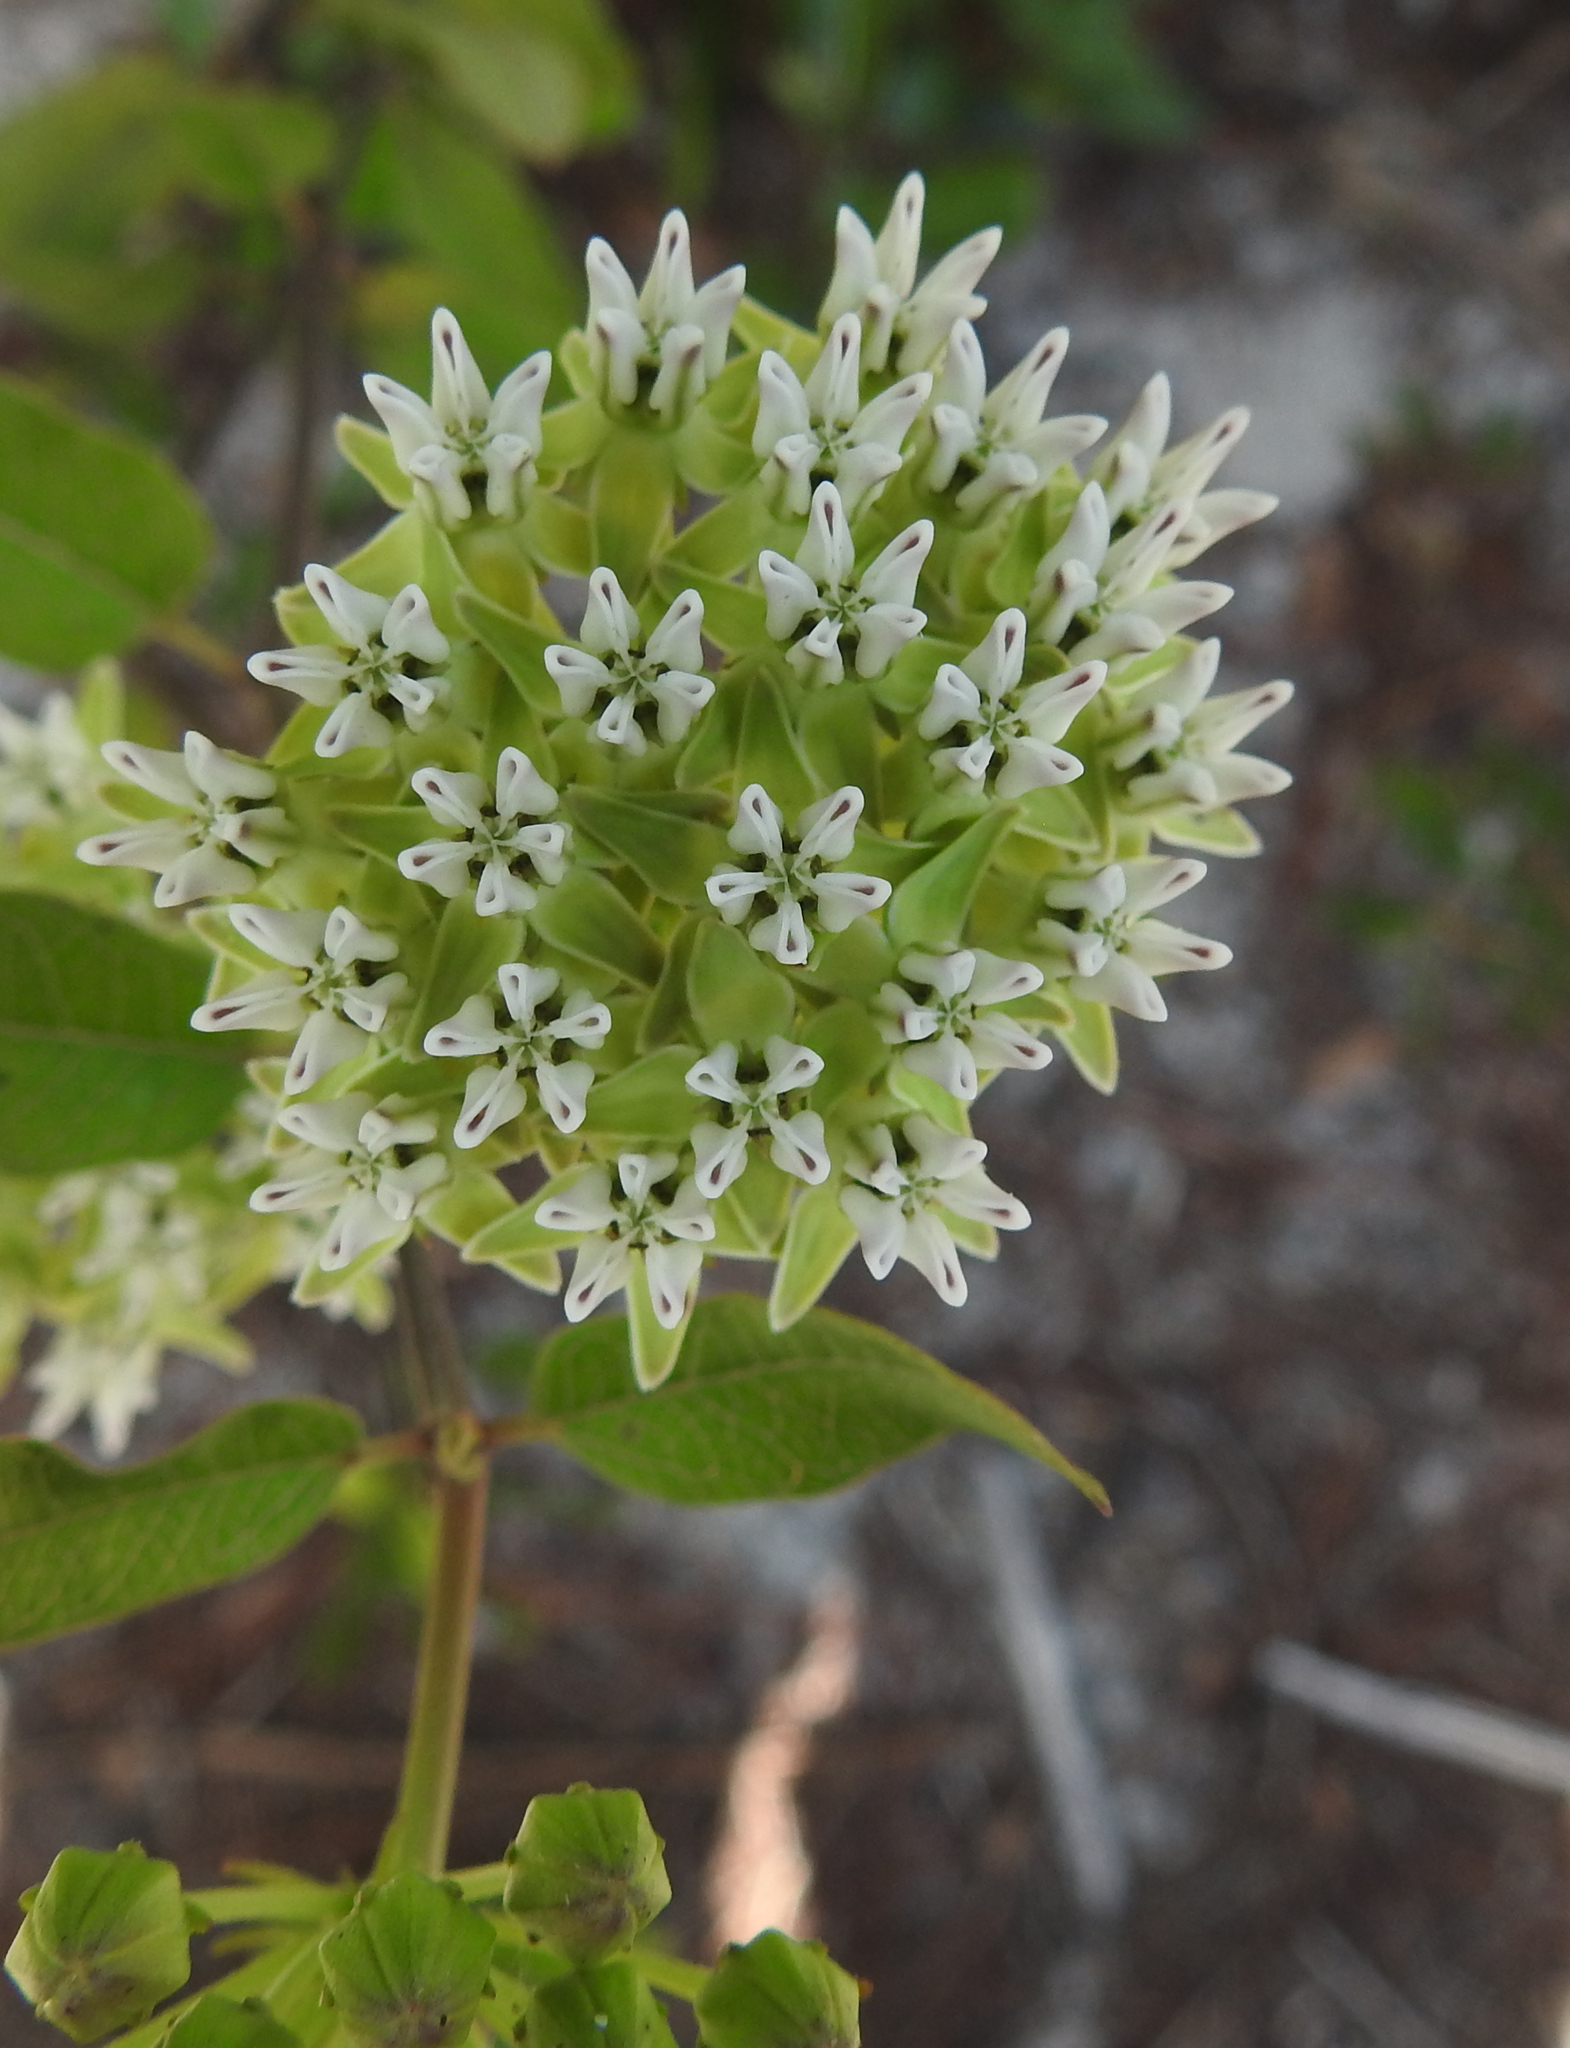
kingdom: Plantae
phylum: Tracheophyta
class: Magnoliopsida
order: Gentianales
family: Apocynaceae
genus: Asclepias
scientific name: Asclepias curtissii
